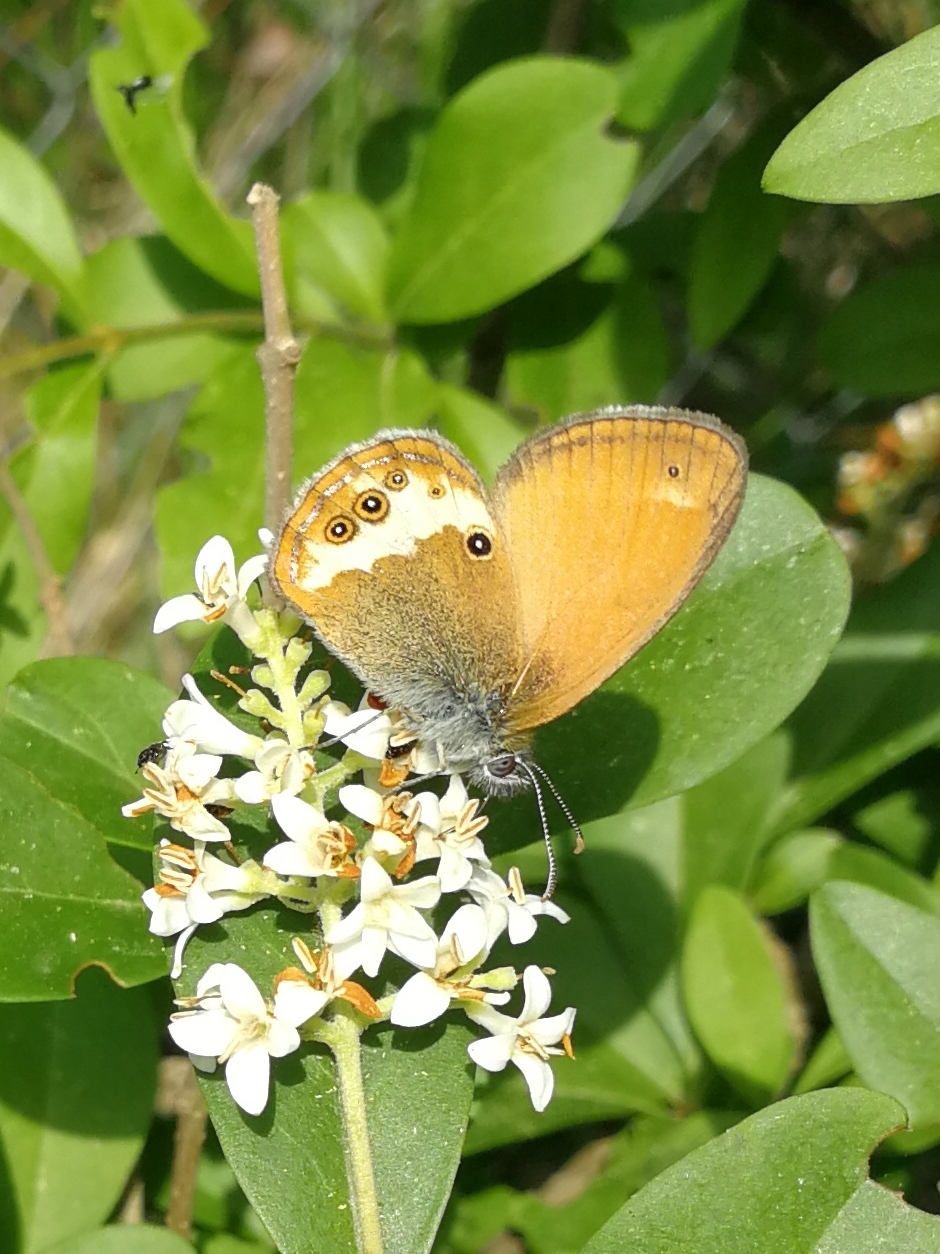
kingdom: Animalia
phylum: Arthropoda
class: Insecta
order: Lepidoptera
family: Nymphalidae
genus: Coenonympha
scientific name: Coenonympha arcania
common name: Pearly heath
